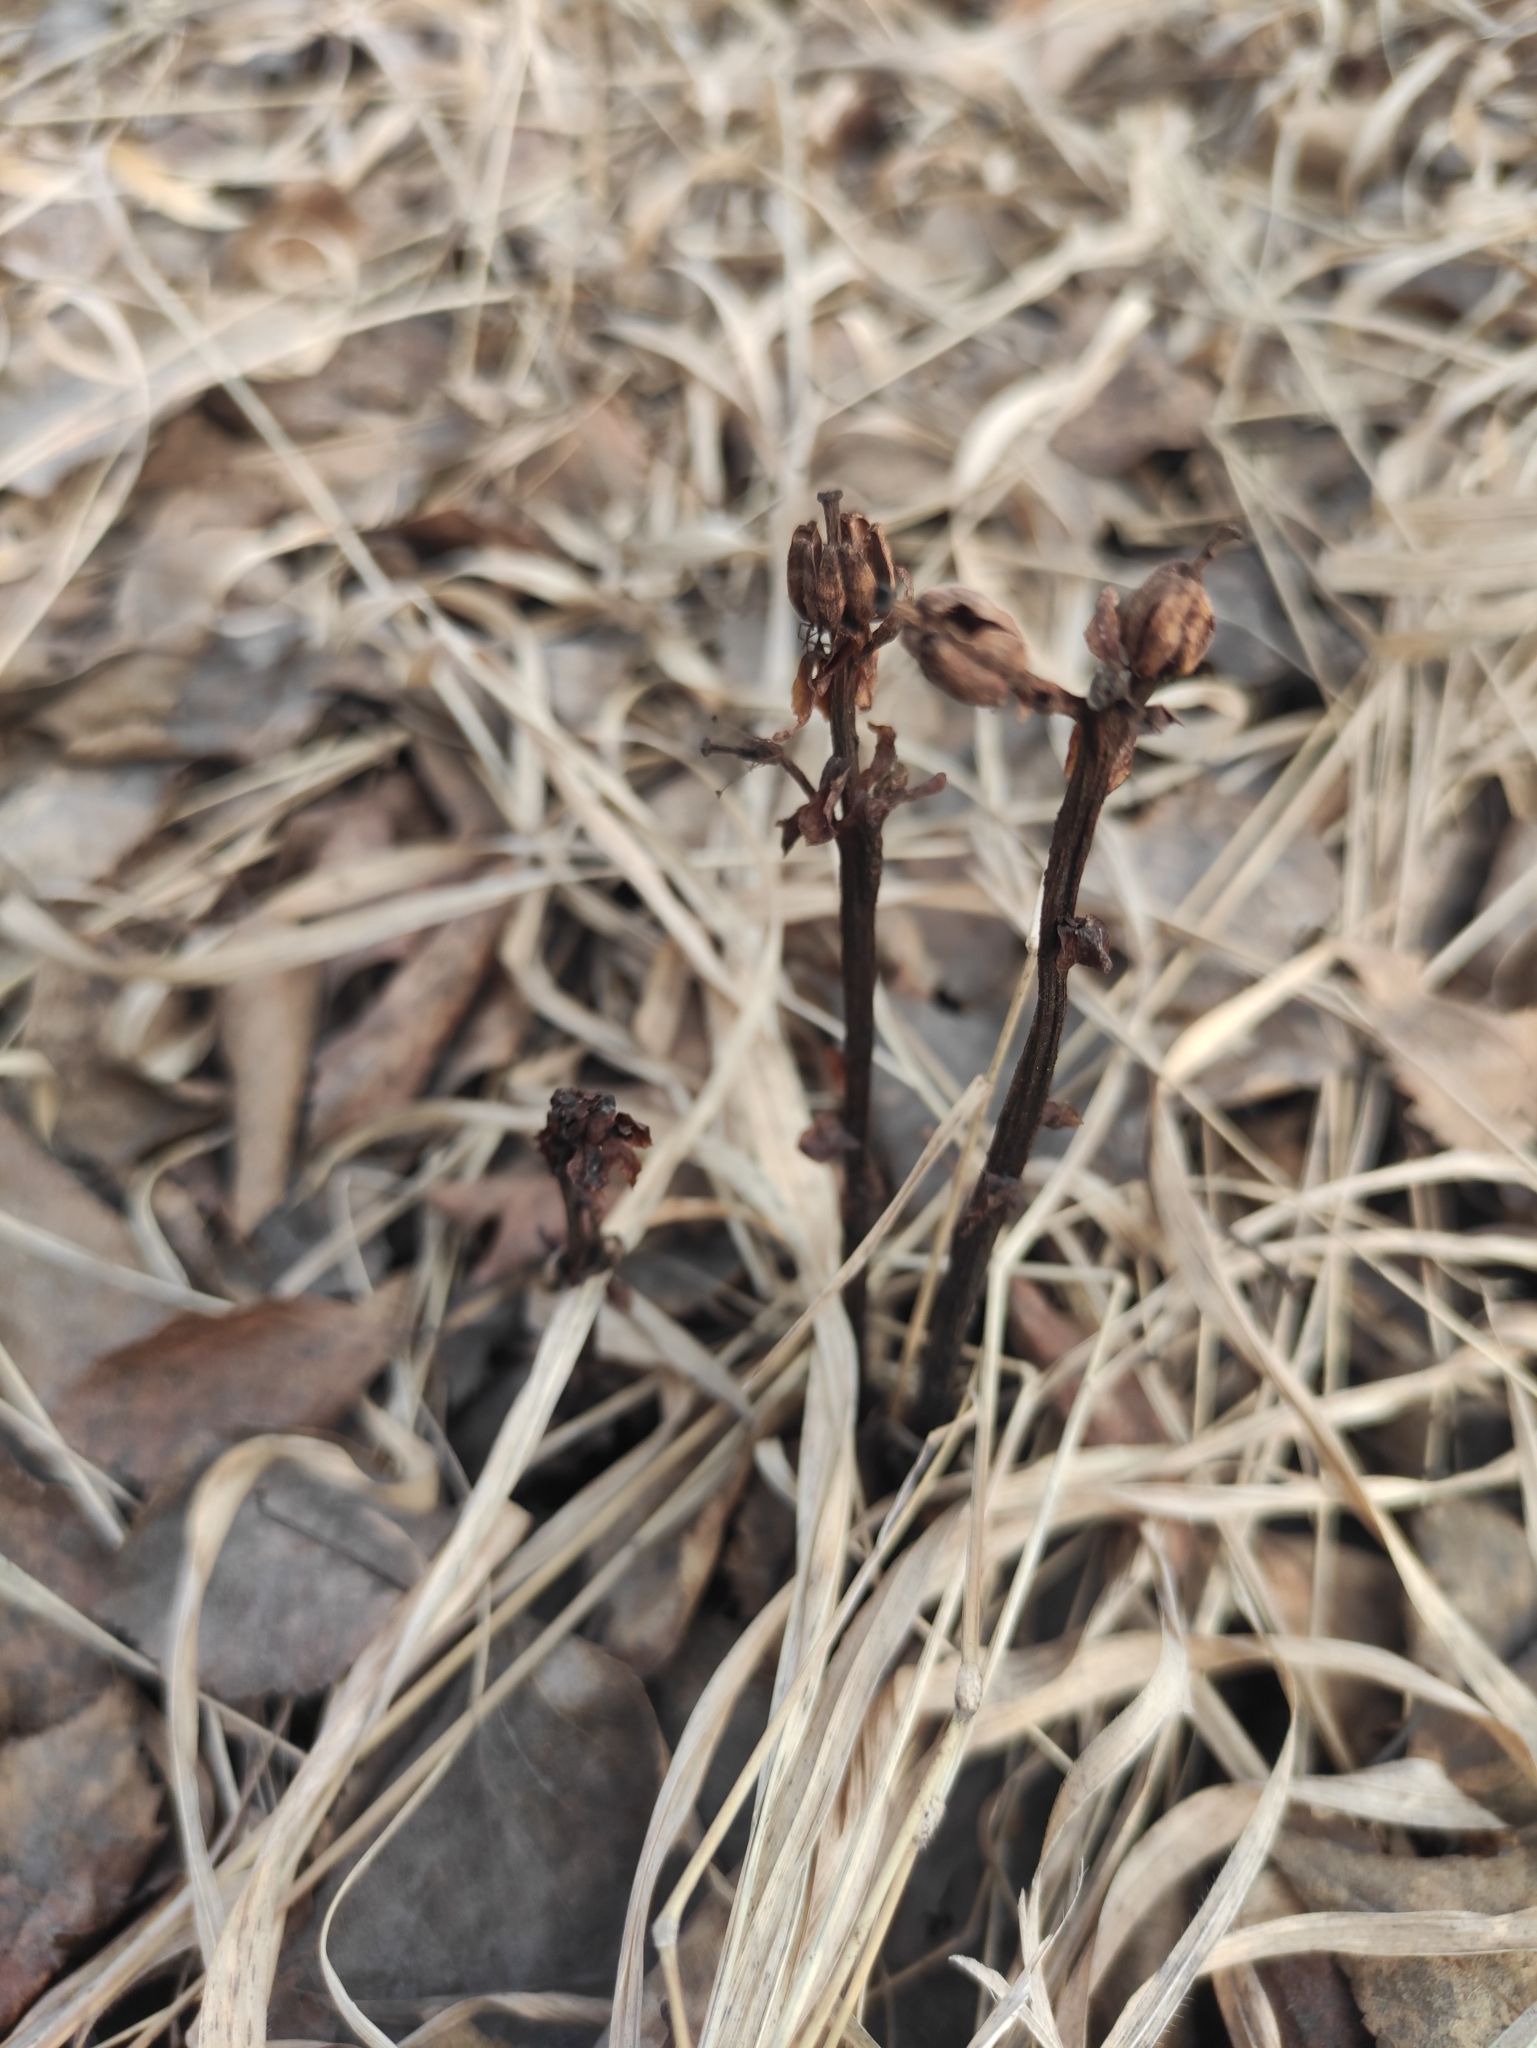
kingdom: Plantae
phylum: Tracheophyta
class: Magnoliopsida
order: Ericales
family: Ericaceae
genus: Hypopitys
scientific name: Hypopitys monotropa
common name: Yellow bird's-nest
